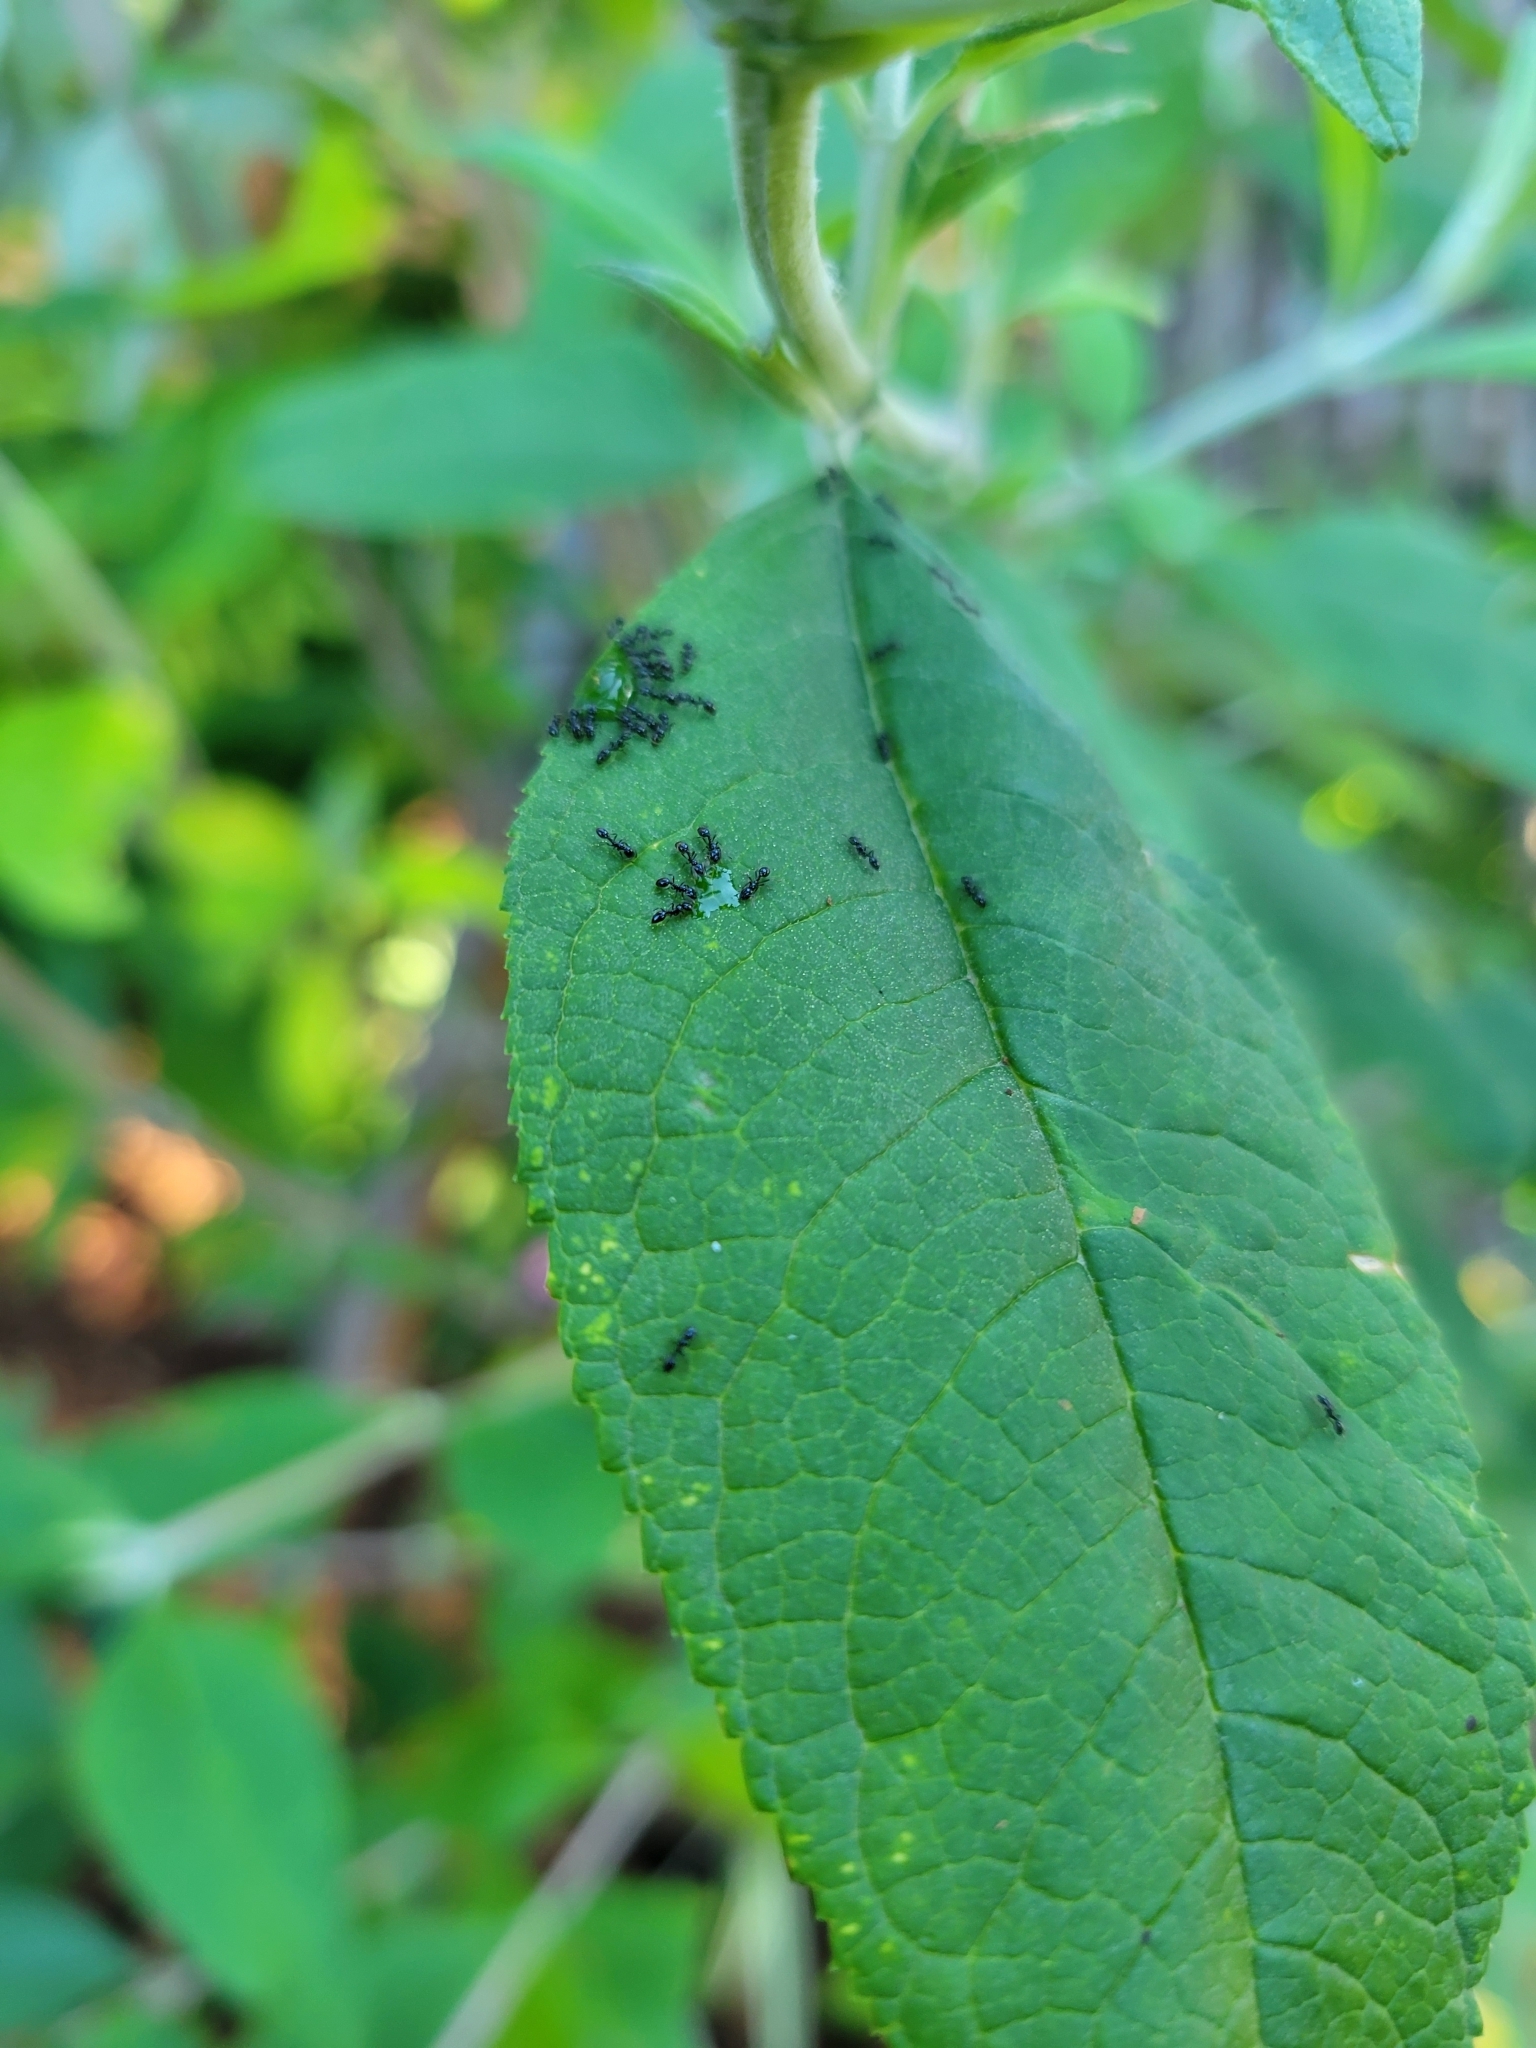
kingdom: Animalia
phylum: Arthropoda
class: Insecta
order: Hymenoptera
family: Formicidae
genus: Monomorium
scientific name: Monomorium minimum
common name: Little black ant
